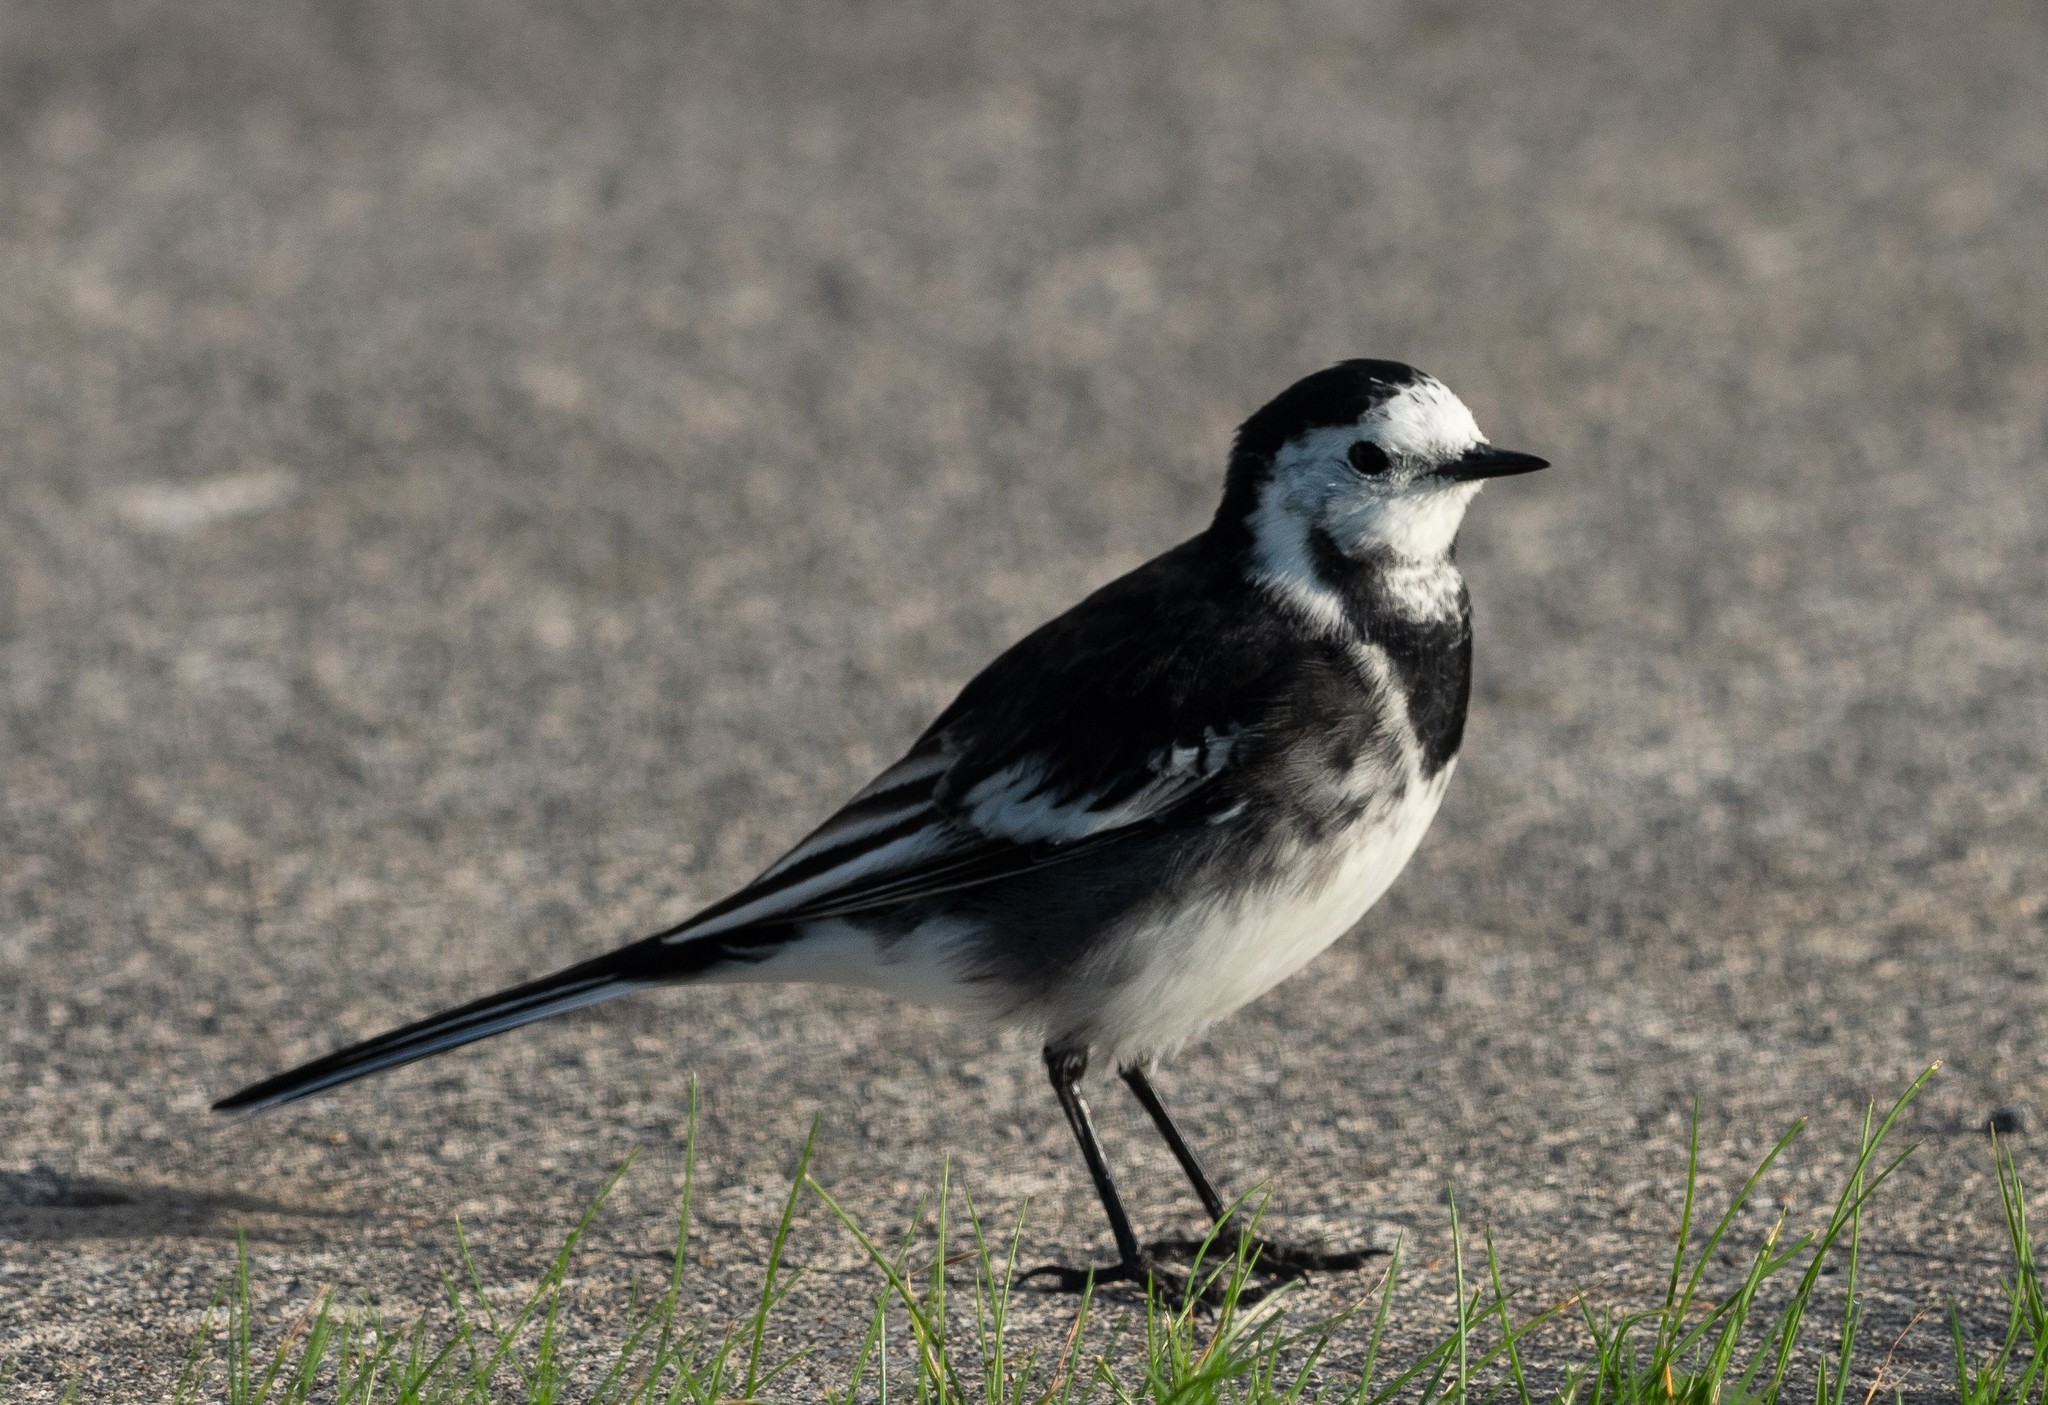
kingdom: Animalia
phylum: Chordata
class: Aves
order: Passeriformes
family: Motacillidae
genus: Motacilla
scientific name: Motacilla alba
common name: White wagtail
